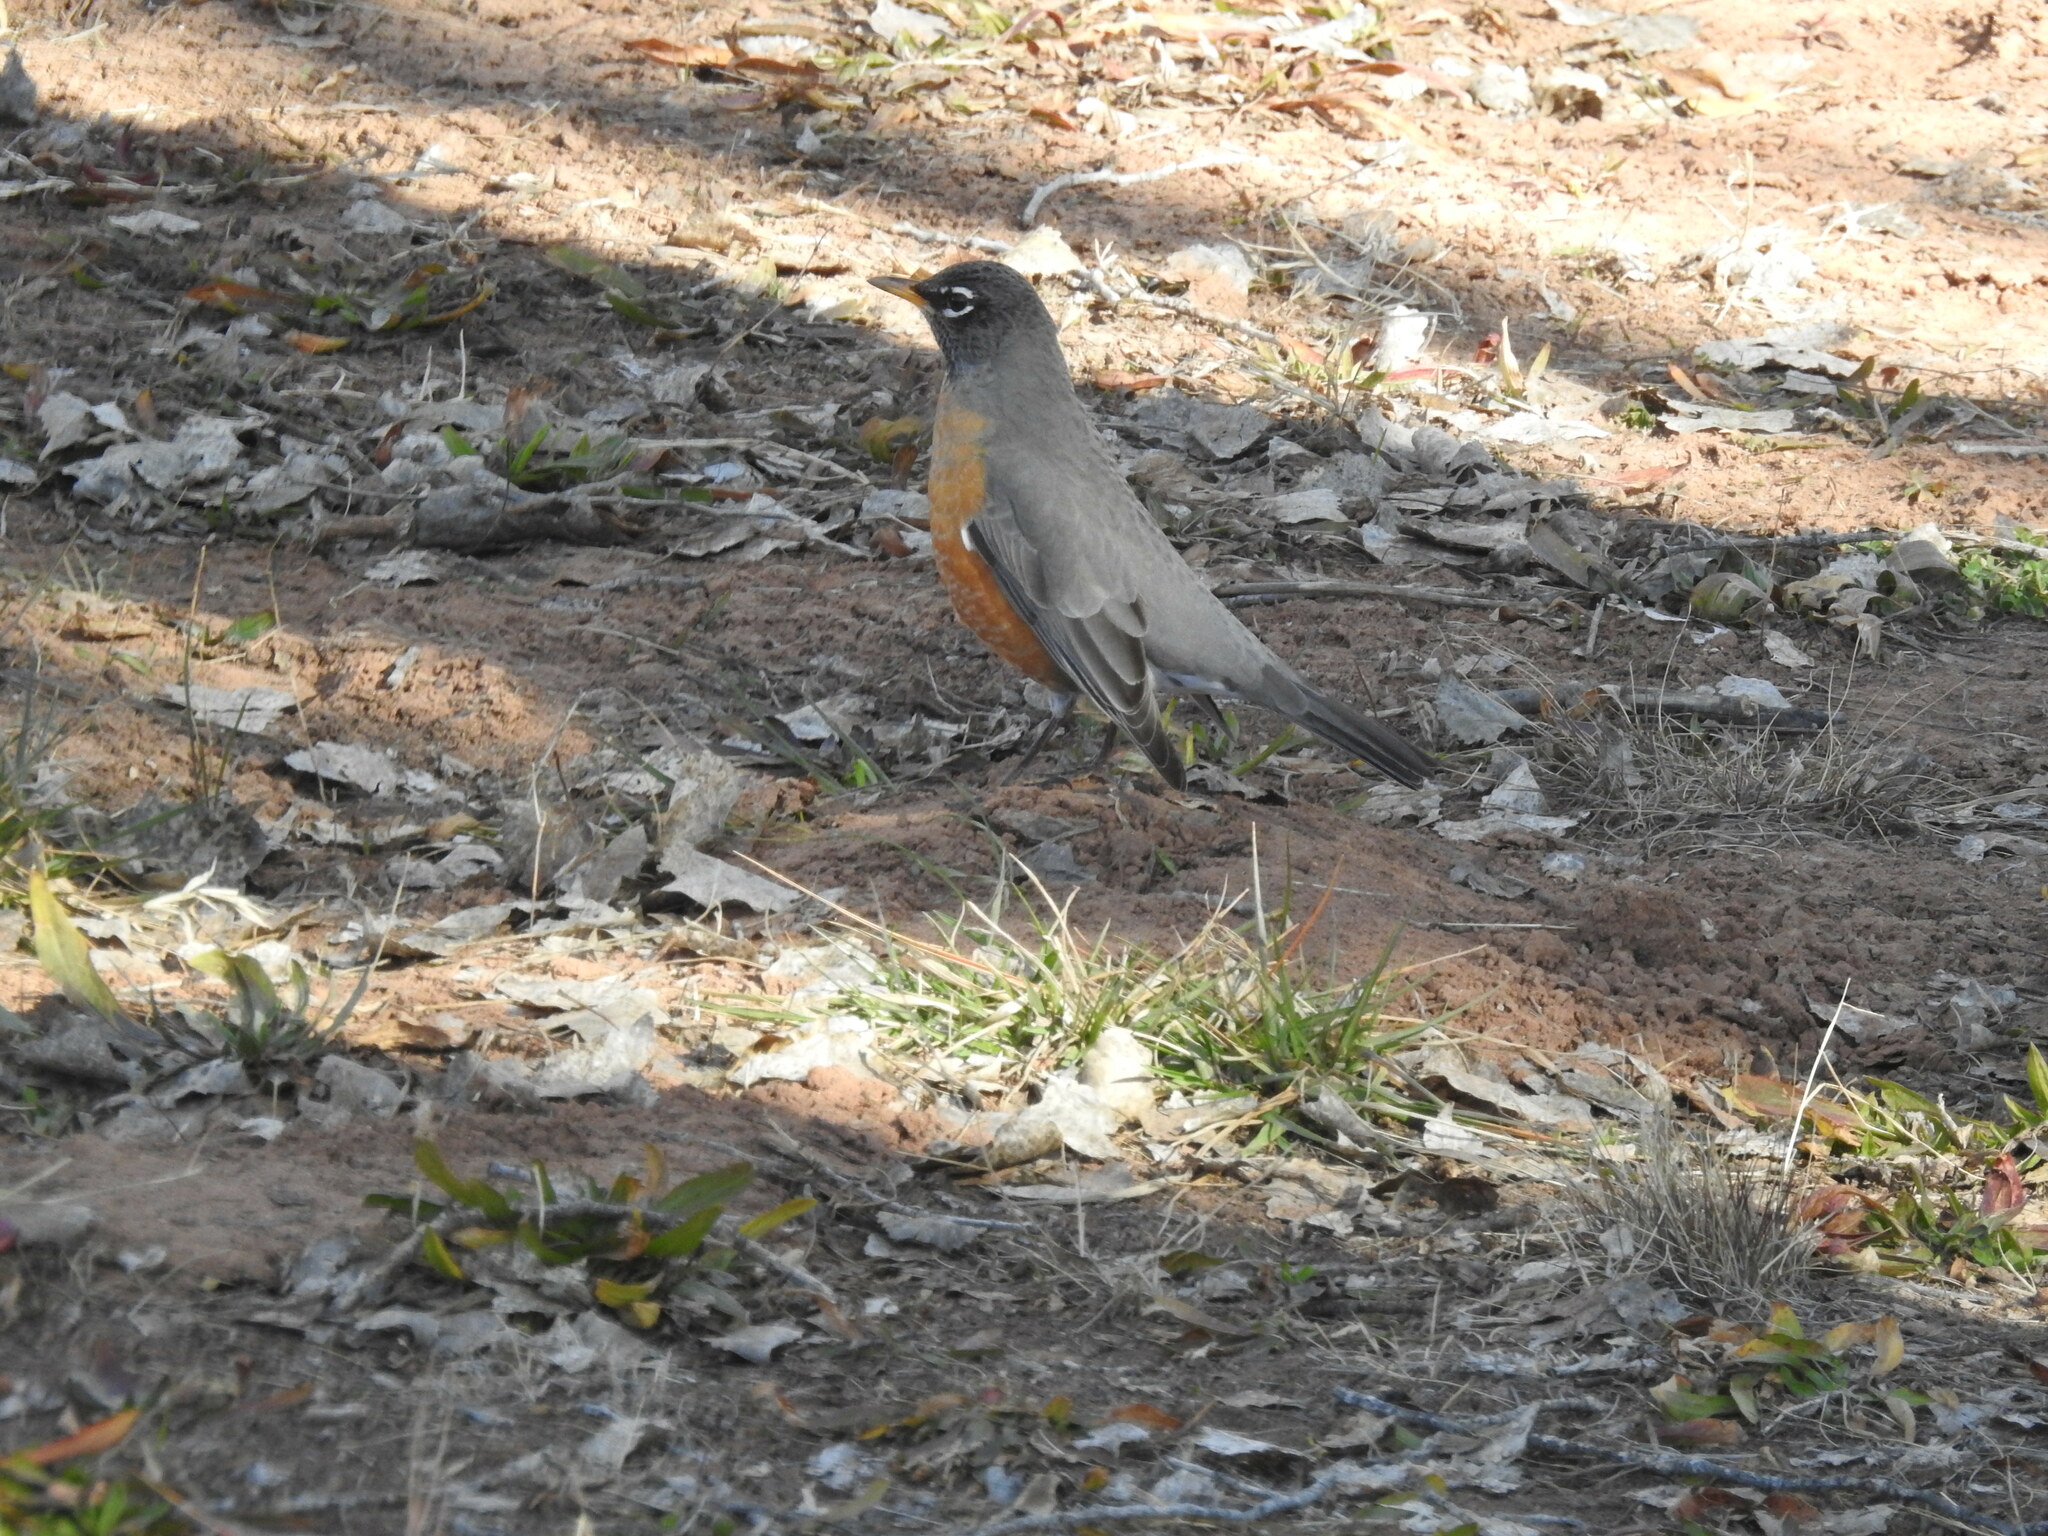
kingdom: Animalia
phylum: Chordata
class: Aves
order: Passeriformes
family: Turdidae
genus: Turdus
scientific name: Turdus migratorius
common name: American robin
